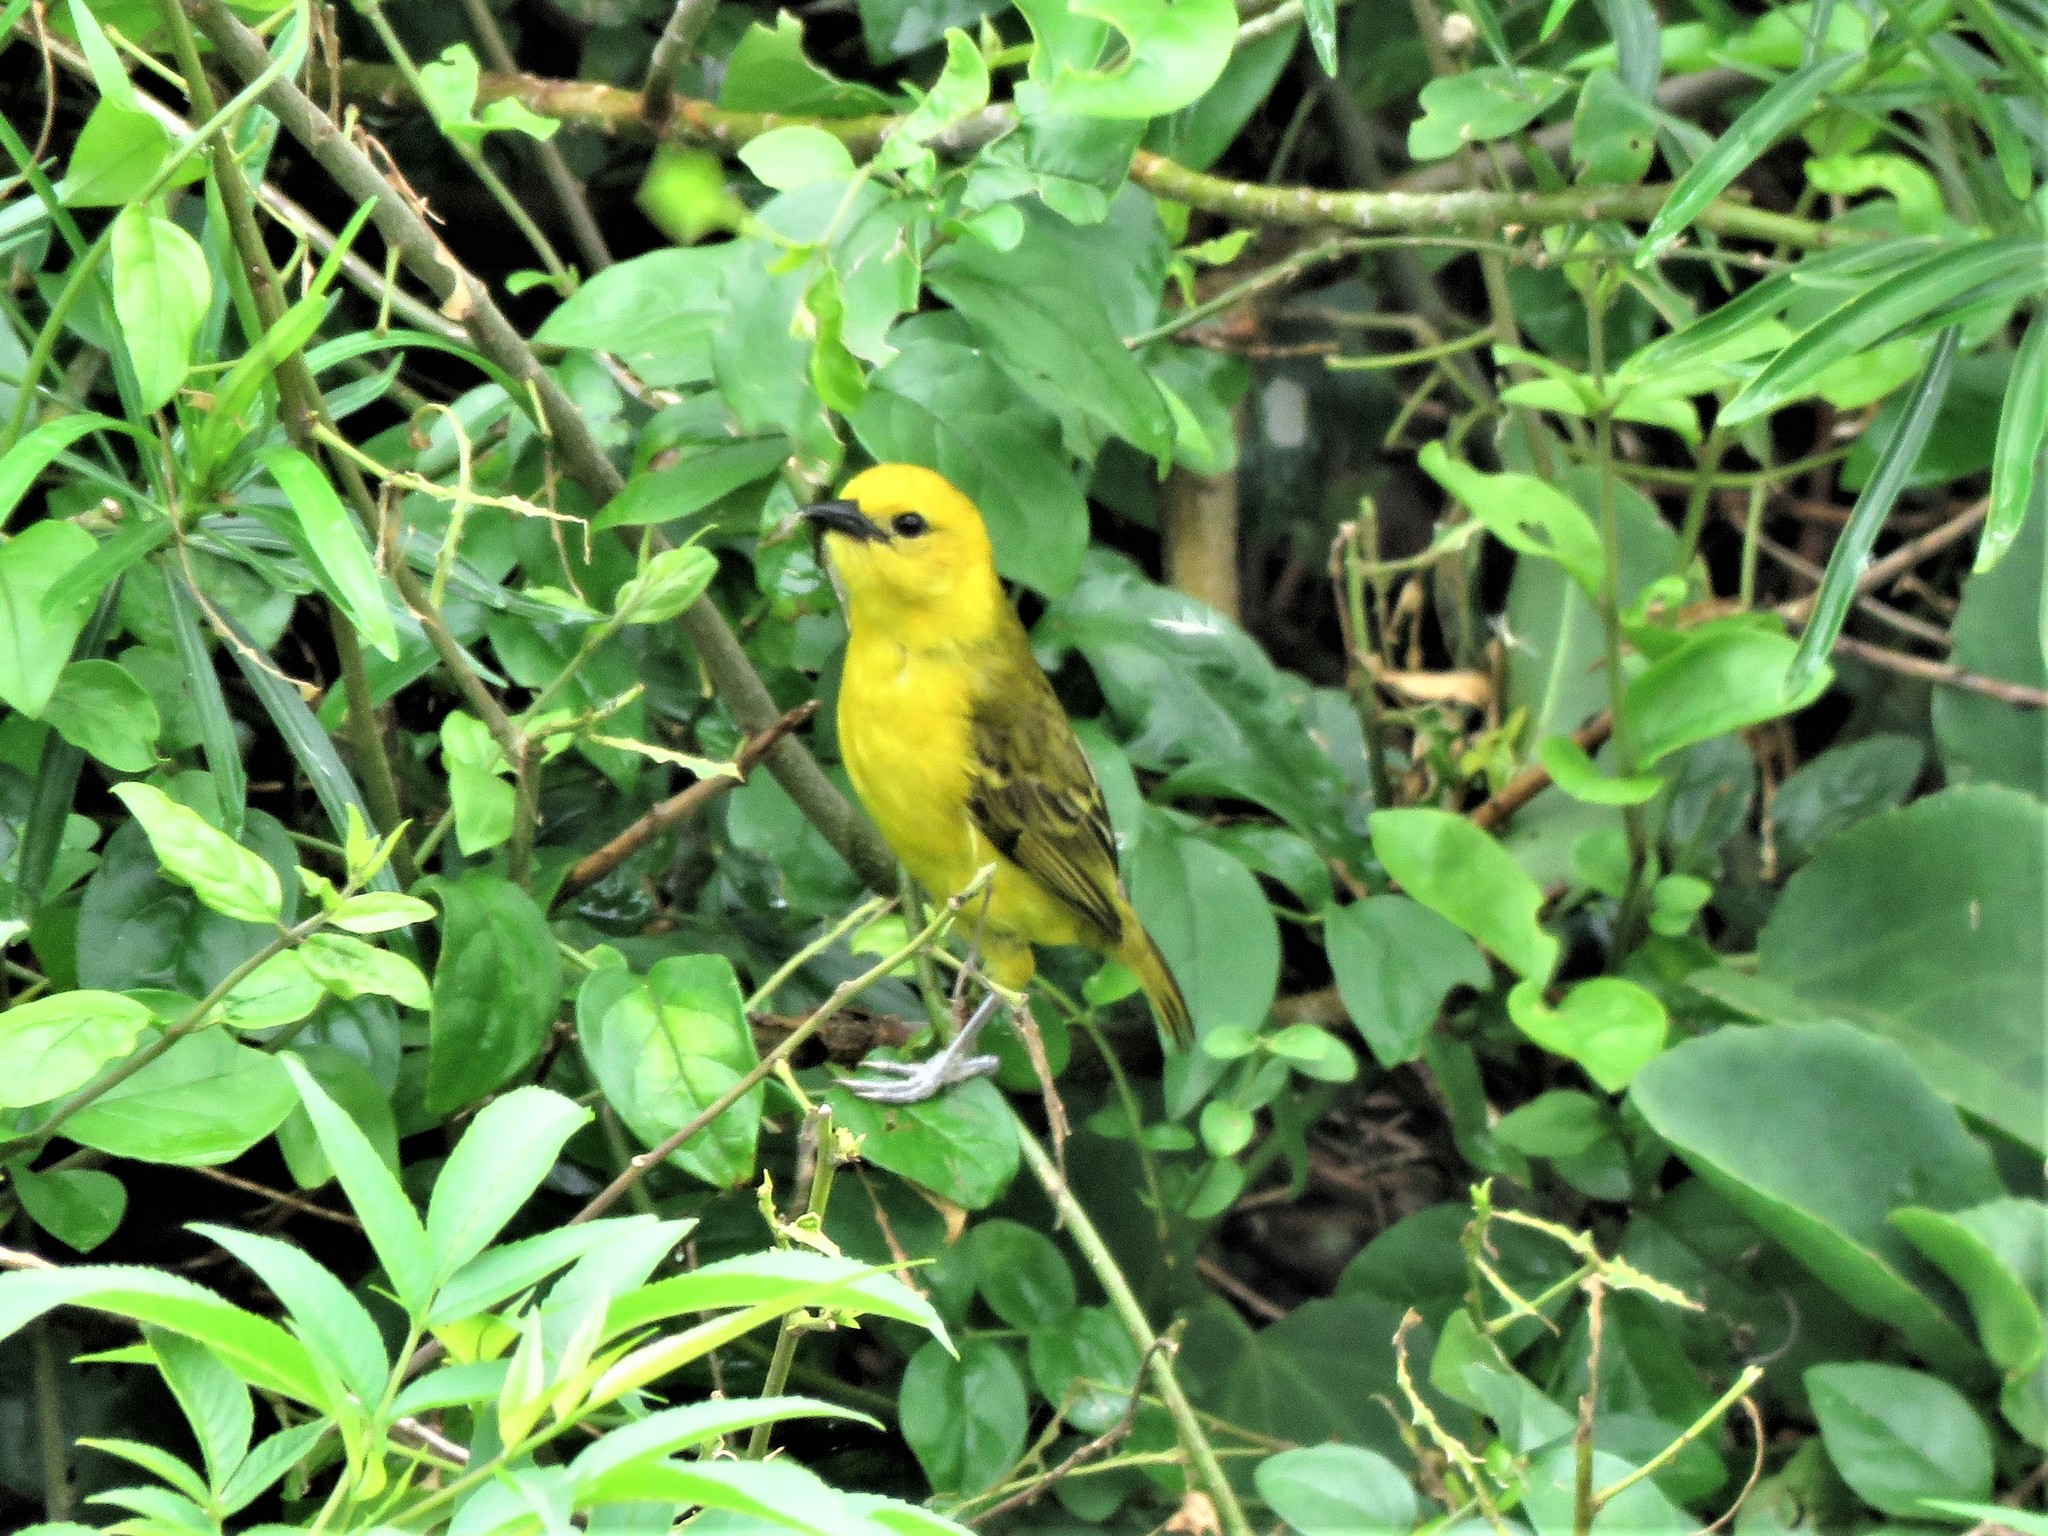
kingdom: Animalia
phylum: Chordata
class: Aves
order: Passeriformes
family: Ploceidae
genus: Ploceus
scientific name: Ploceus pelzelni
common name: Slender-billed weaver
